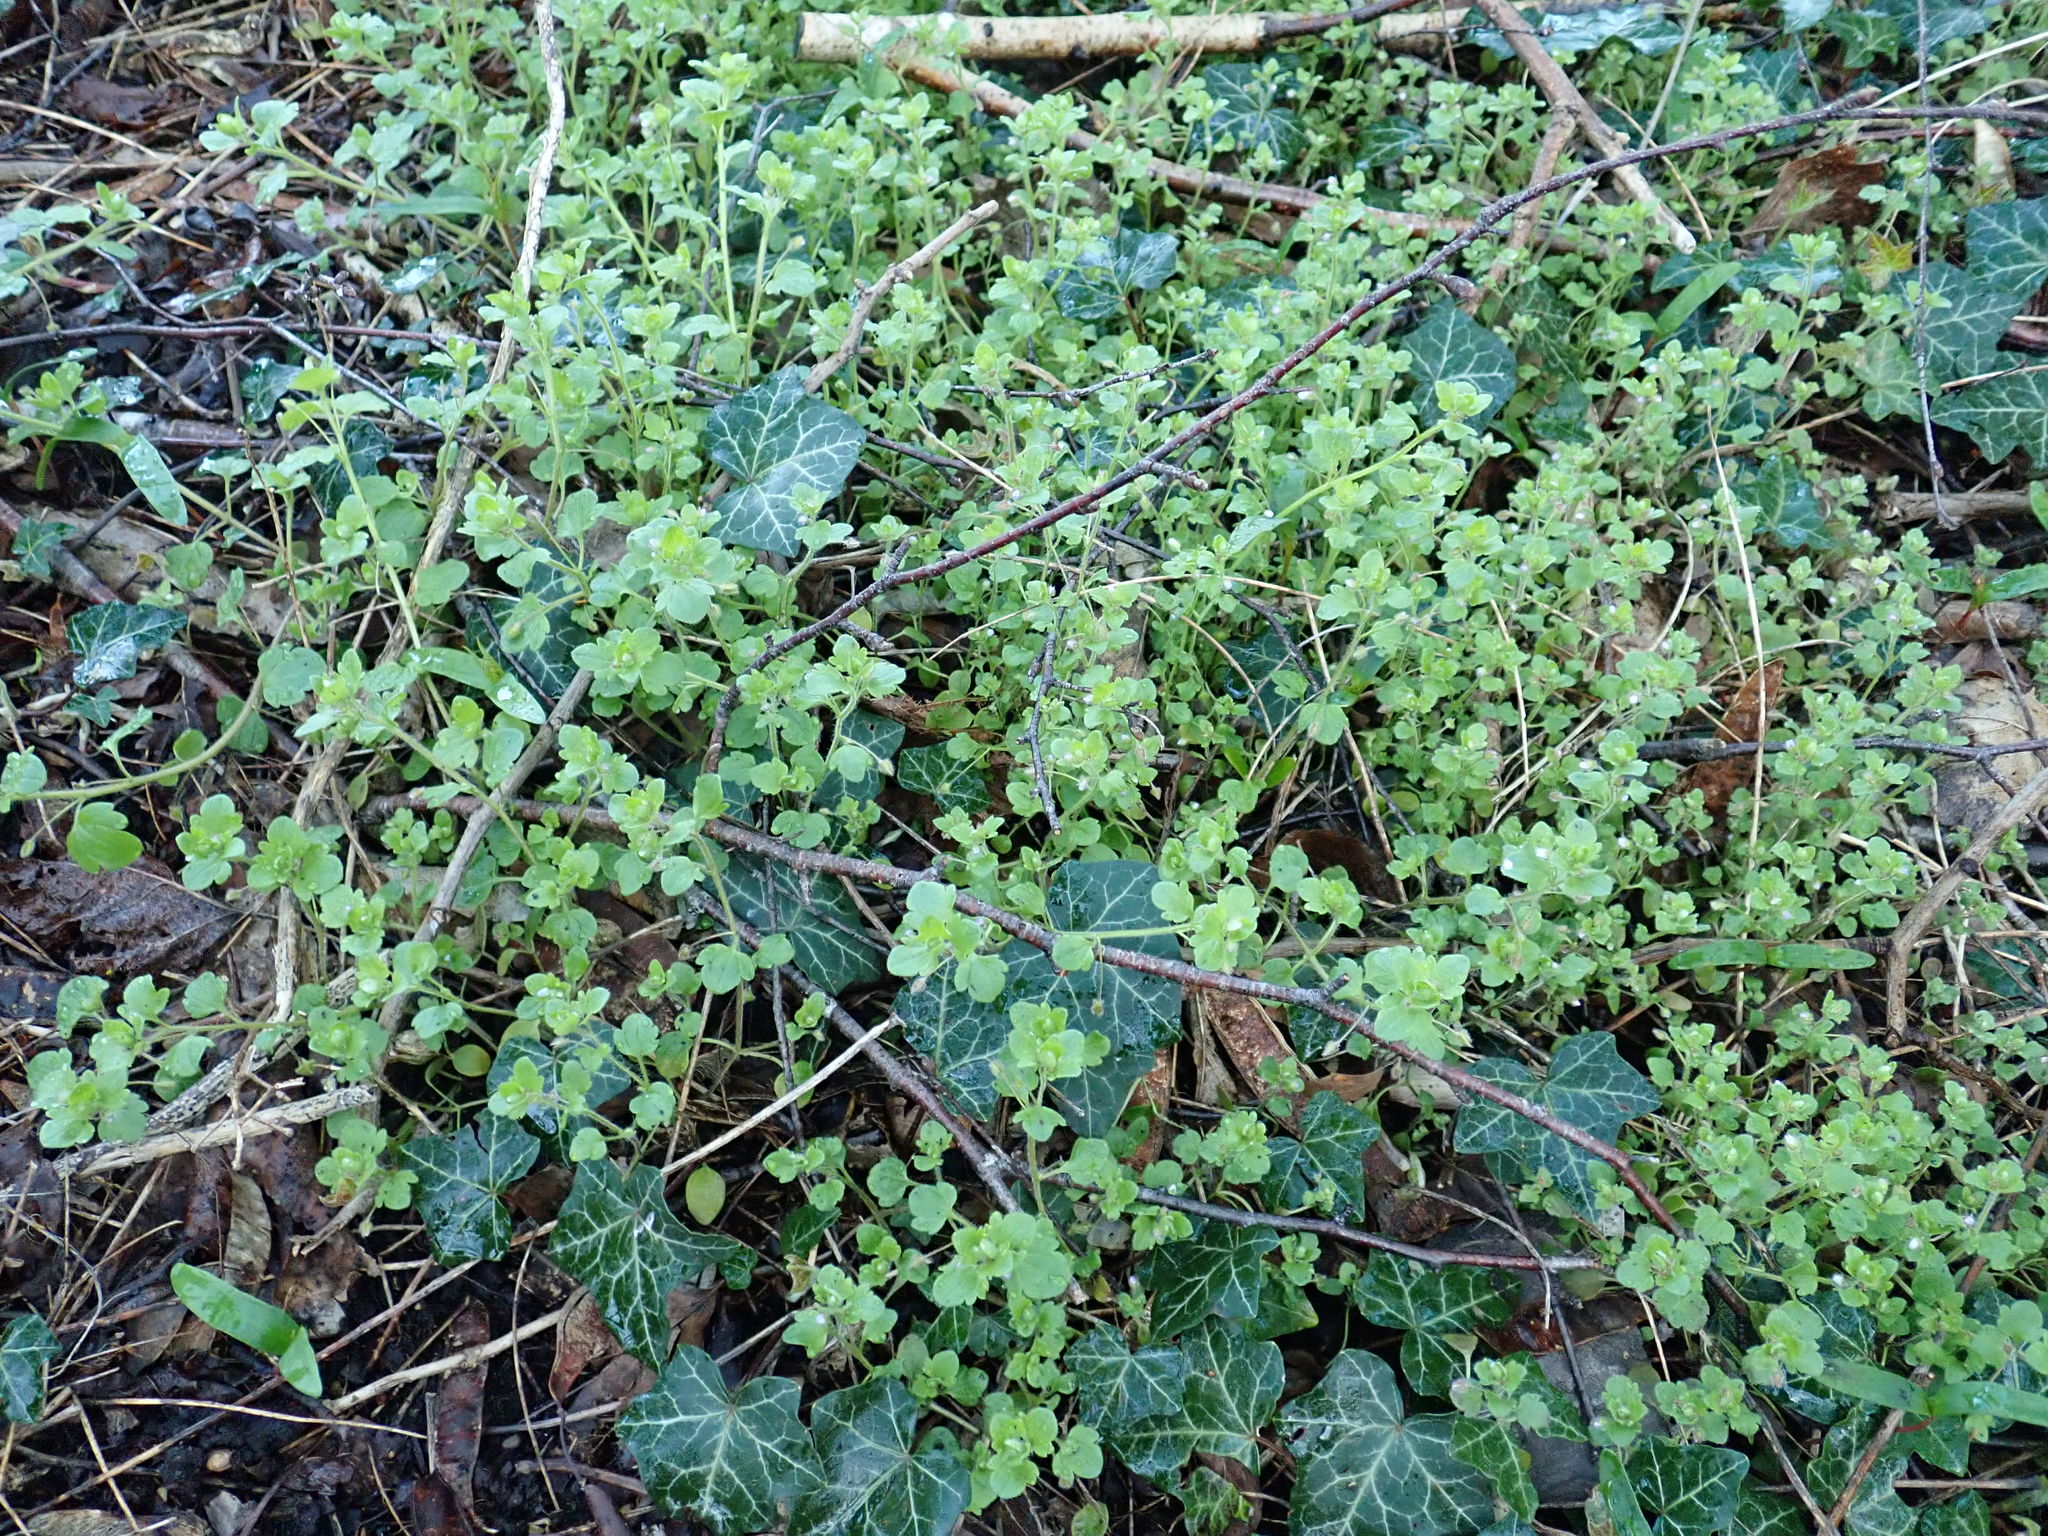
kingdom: Plantae
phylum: Tracheophyta
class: Magnoliopsida
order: Lamiales
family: Plantaginaceae
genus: Veronica
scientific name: Veronica hederifolia
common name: Ivy-leaved speedwell
